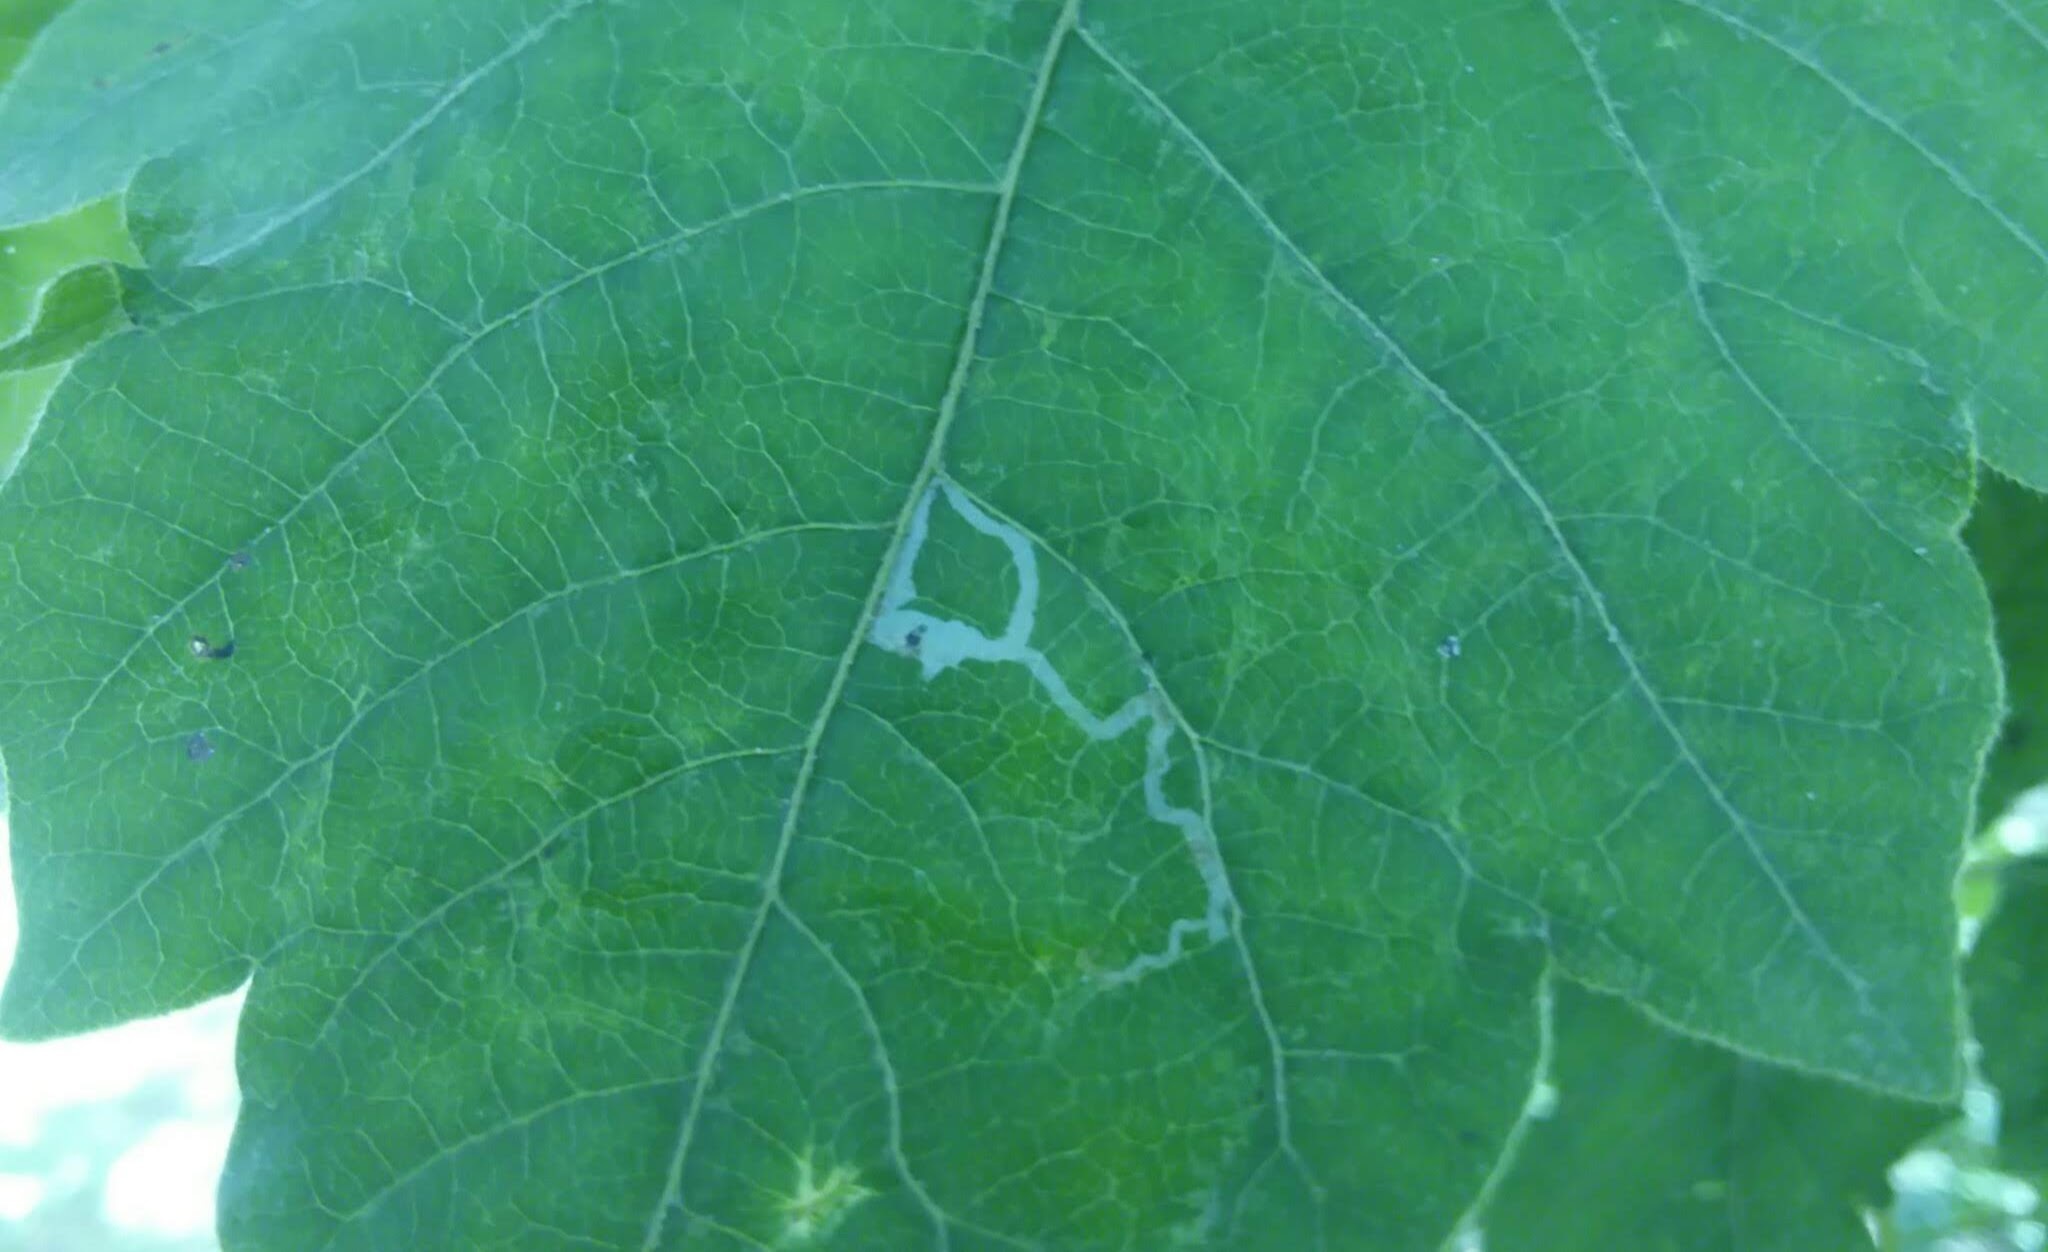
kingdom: Animalia
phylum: Arthropoda
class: Insecta
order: Lepidoptera
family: Gracillariidae
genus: Caloptilia
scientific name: Caloptilia rhoifoliella
